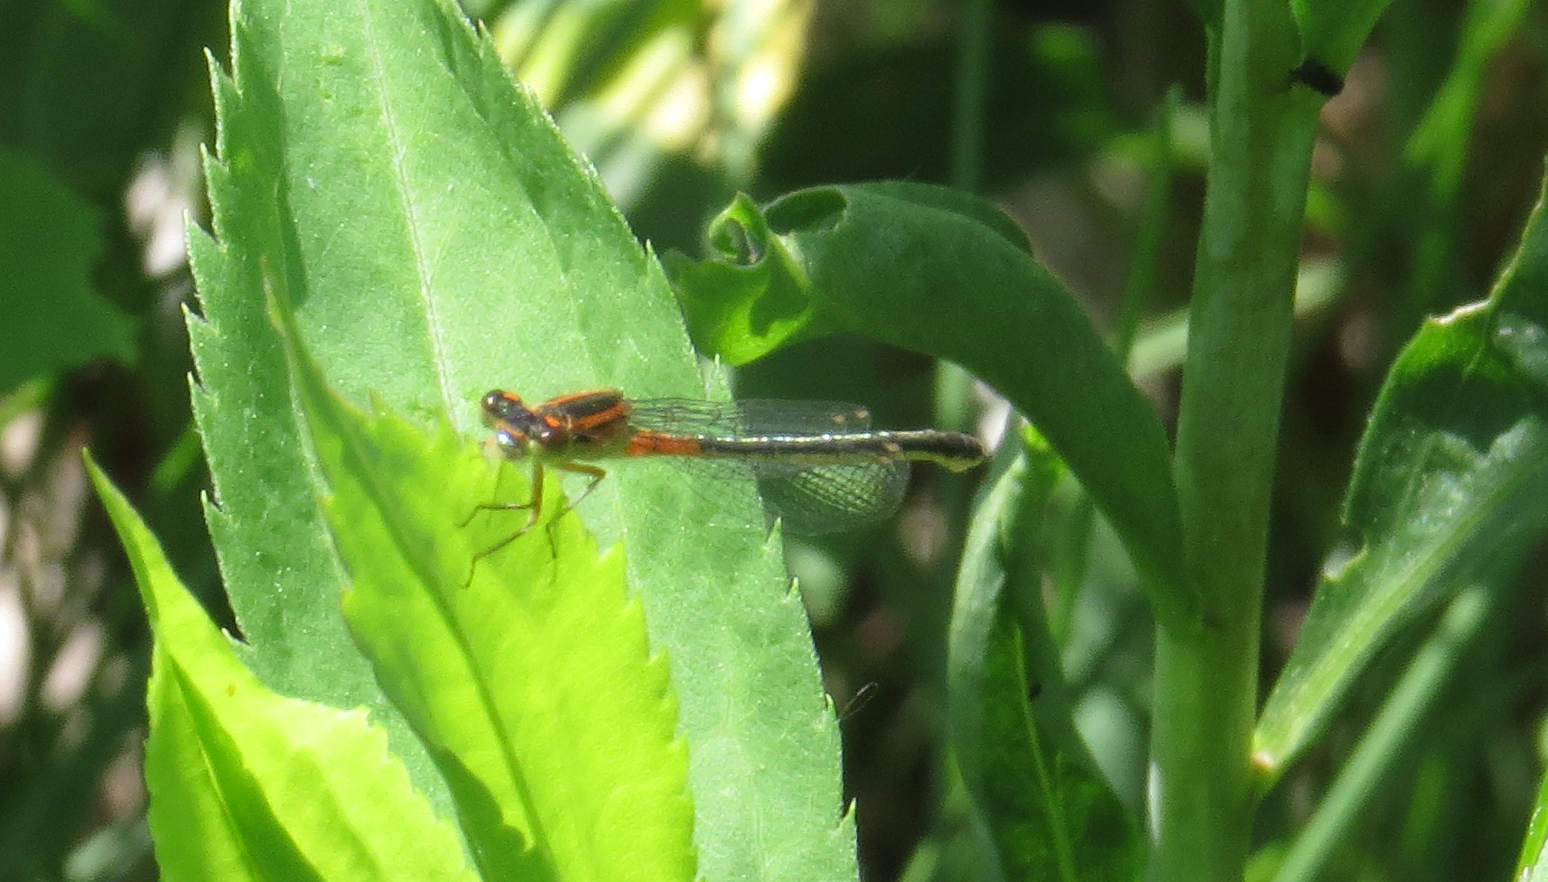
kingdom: Animalia
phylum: Arthropoda
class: Insecta
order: Odonata
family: Coenagrionidae
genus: Ischnura
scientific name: Ischnura verticalis
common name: Eastern forktail
